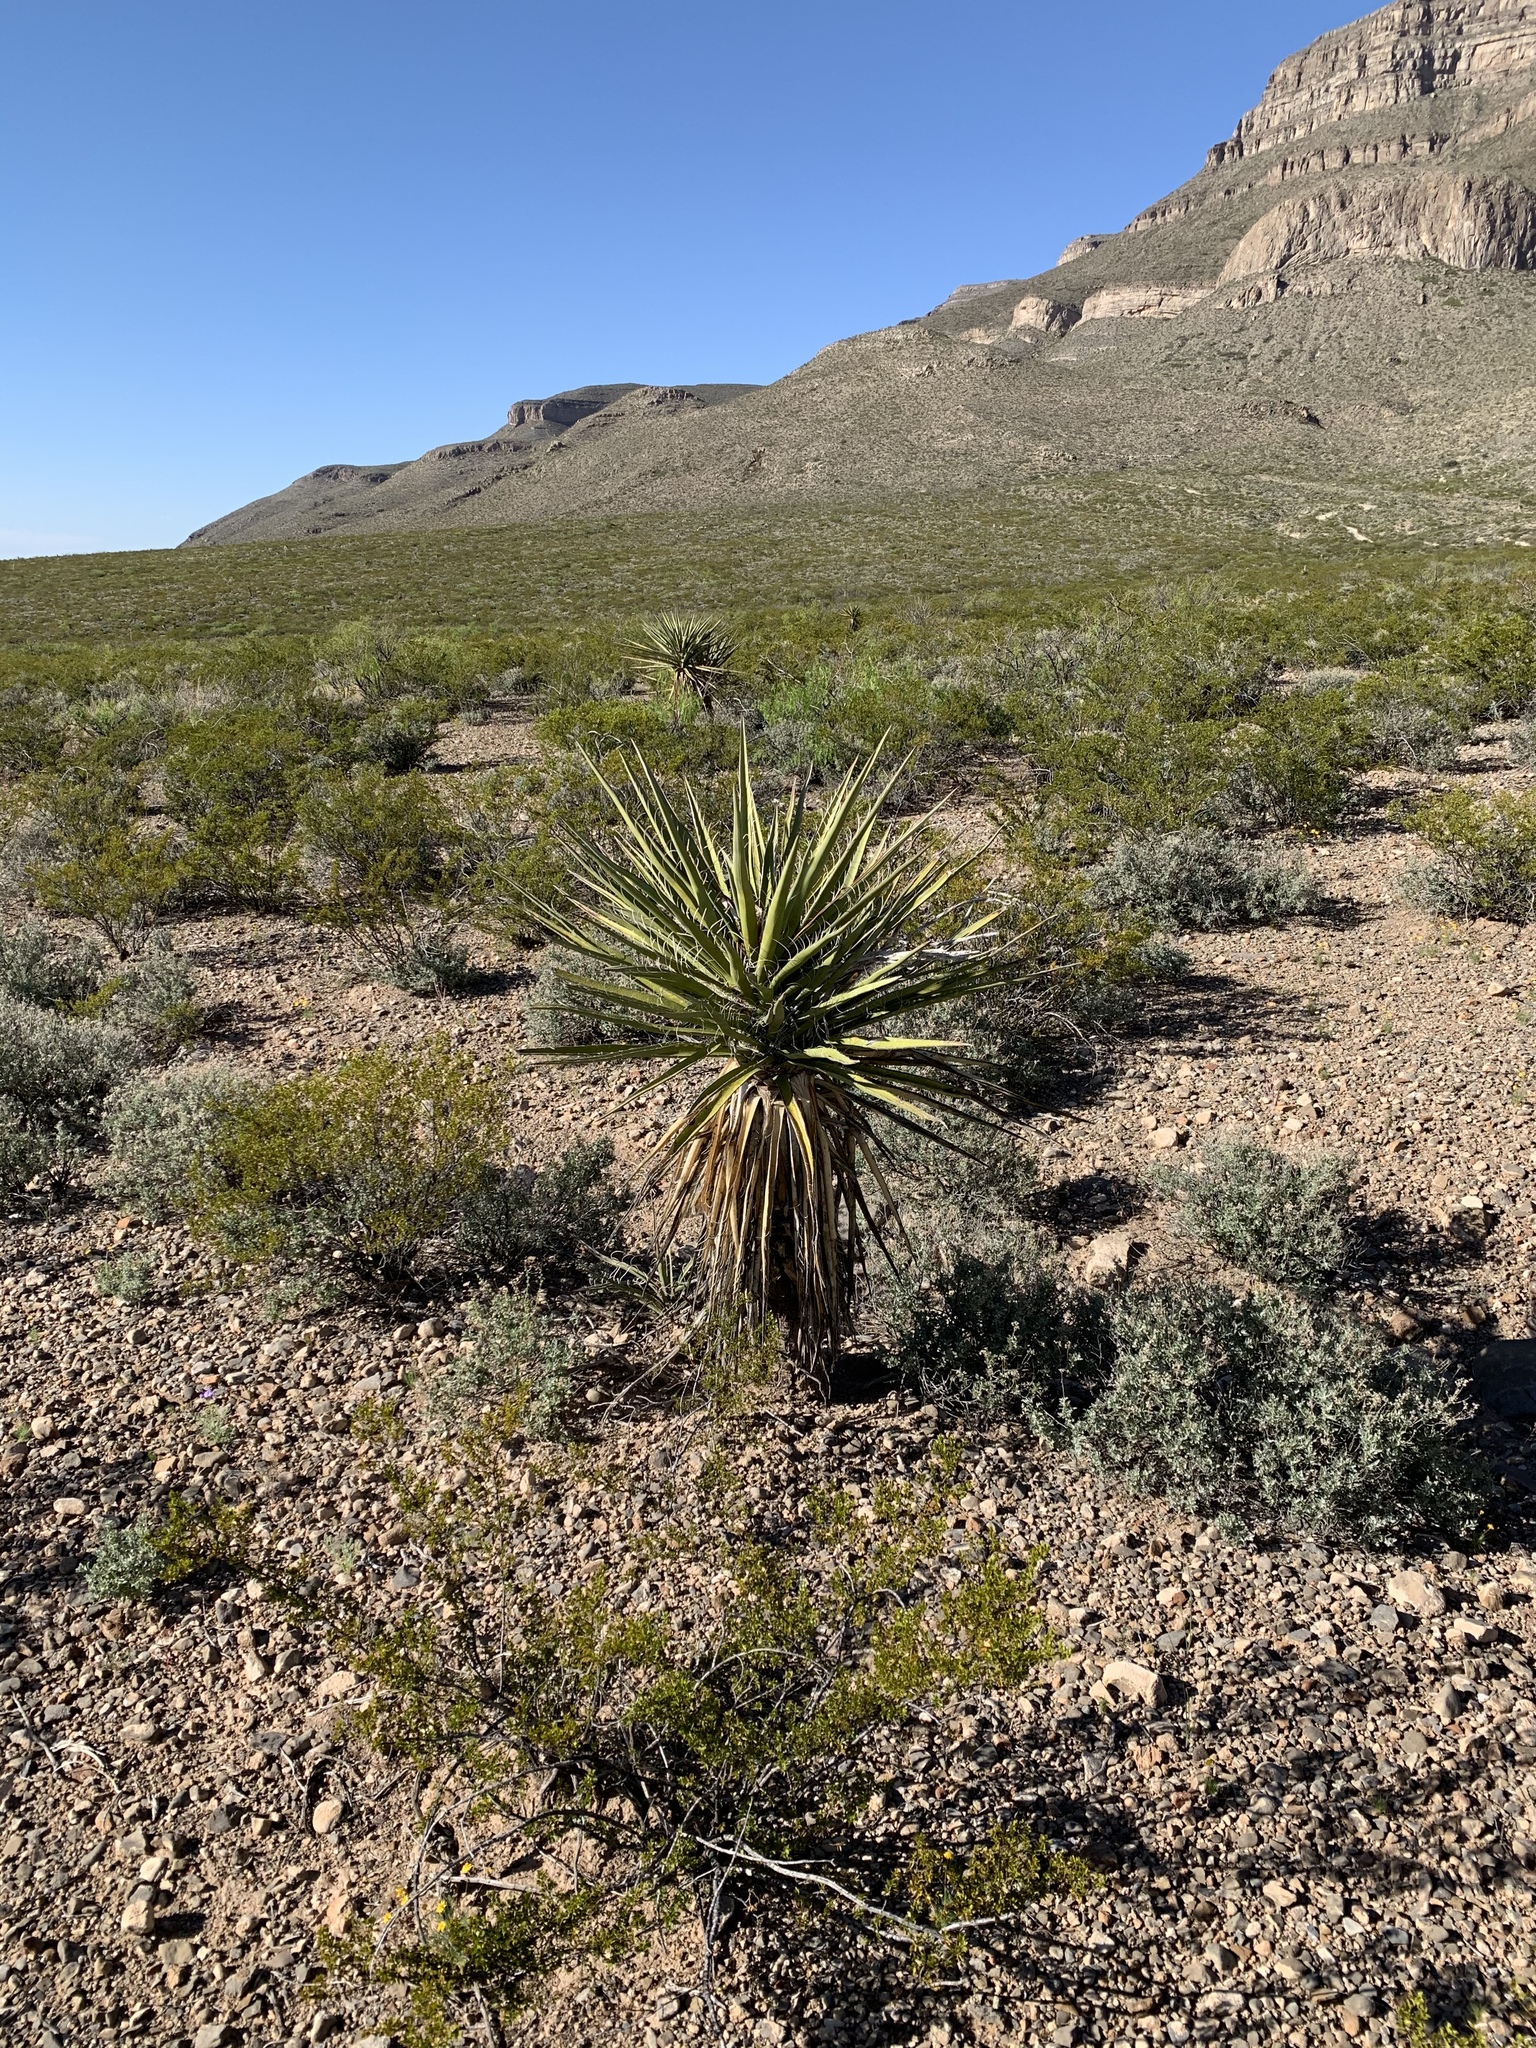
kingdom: Plantae
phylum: Tracheophyta
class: Liliopsida
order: Asparagales
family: Asparagaceae
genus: Yucca
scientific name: Yucca treculiana
